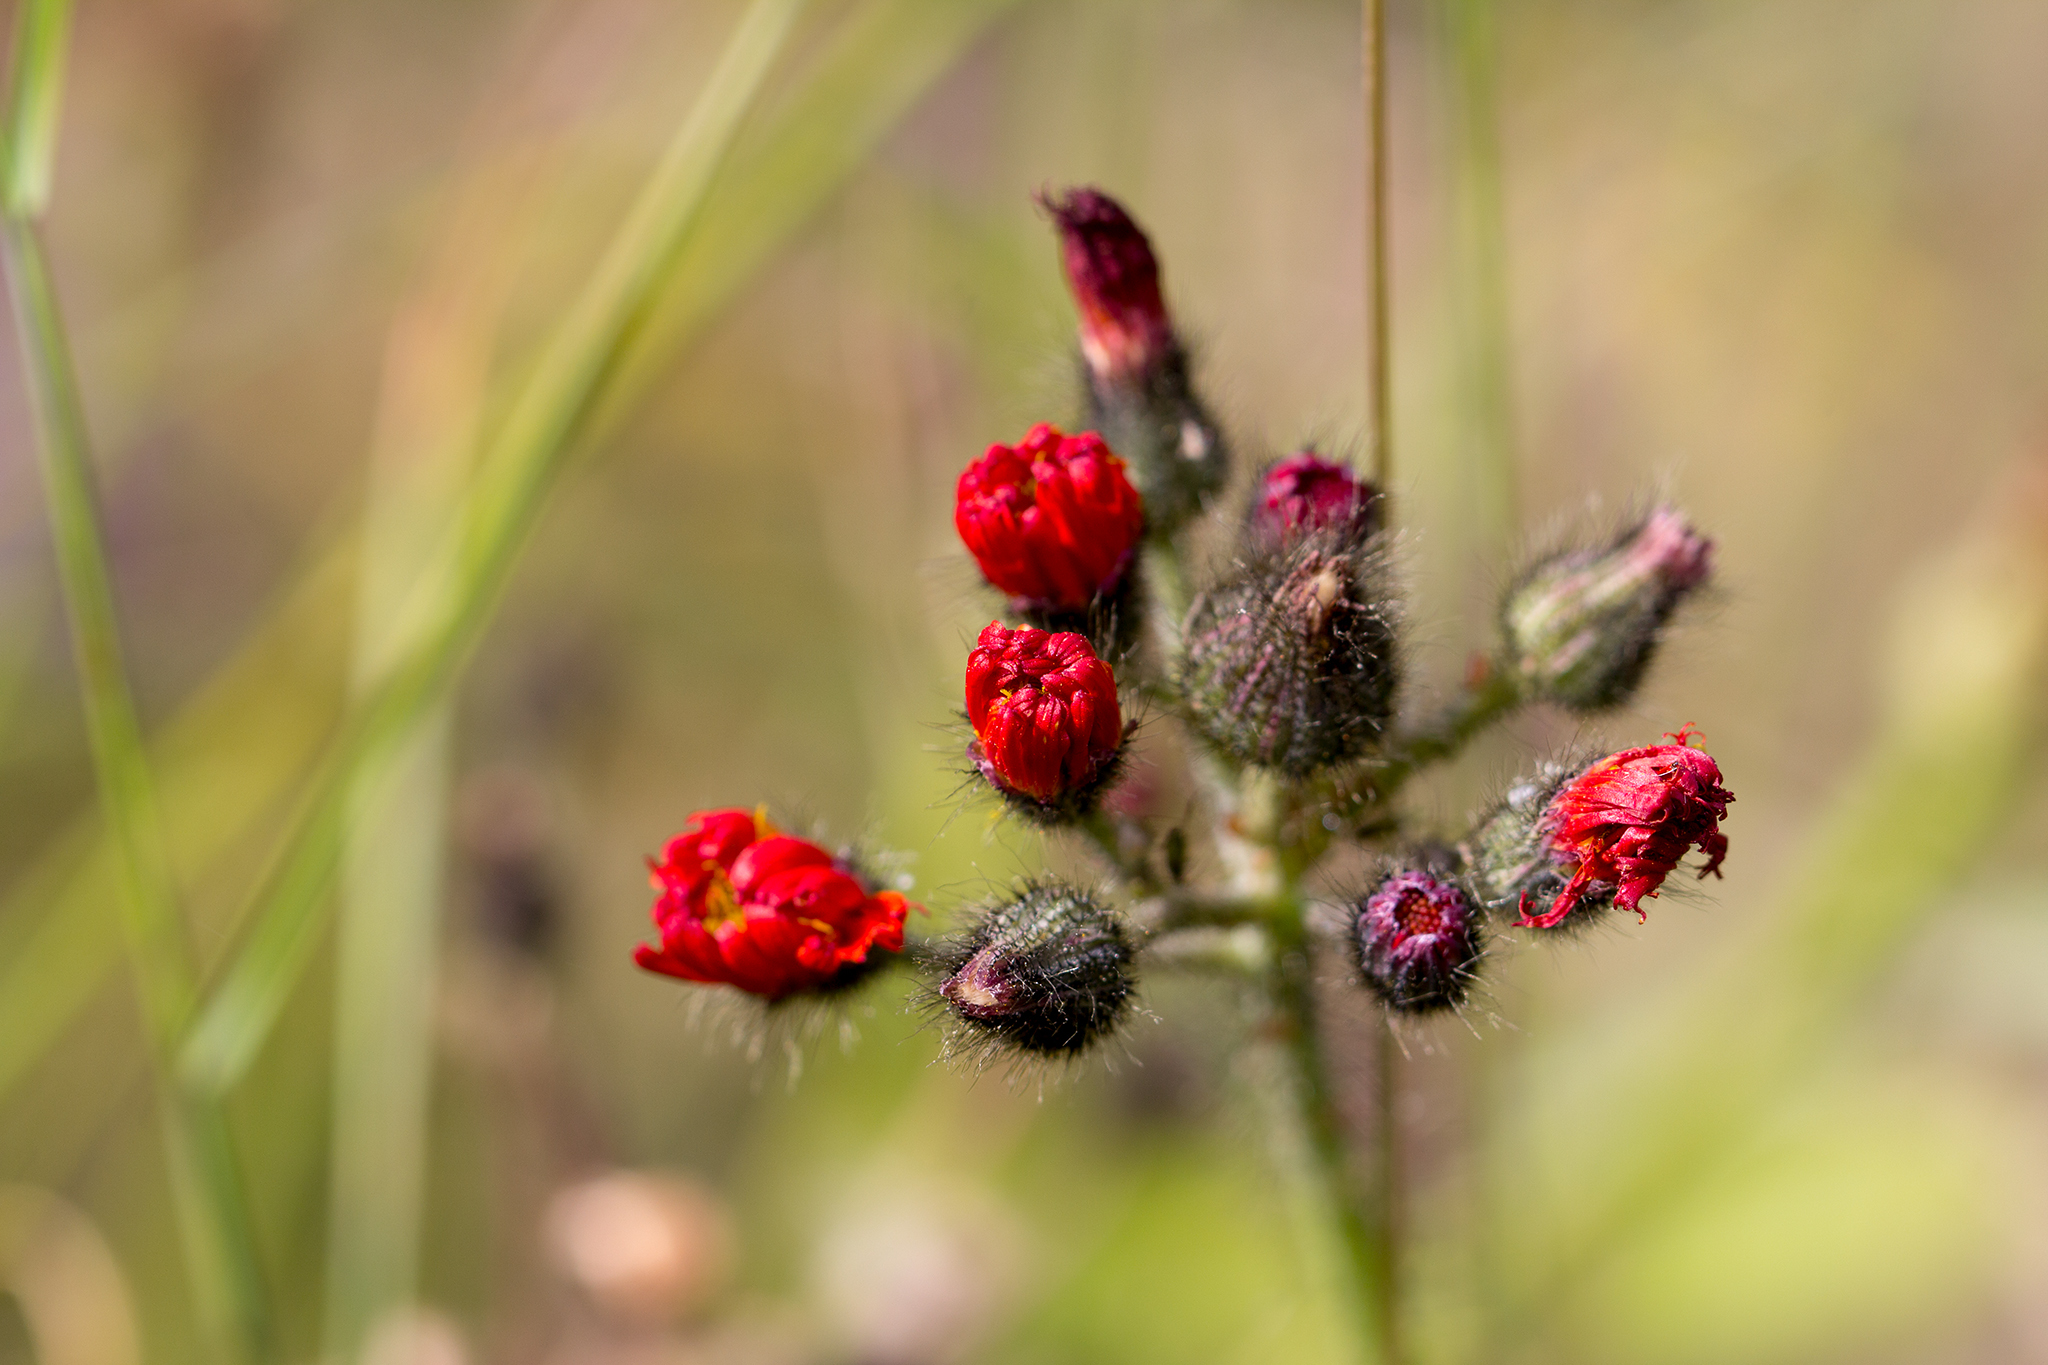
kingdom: Plantae
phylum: Tracheophyta
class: Magnoliopsida
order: Asterales
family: Asteraceae
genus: Pilosella
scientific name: Pilosella aurantiaca
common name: Fox-and-cubs
